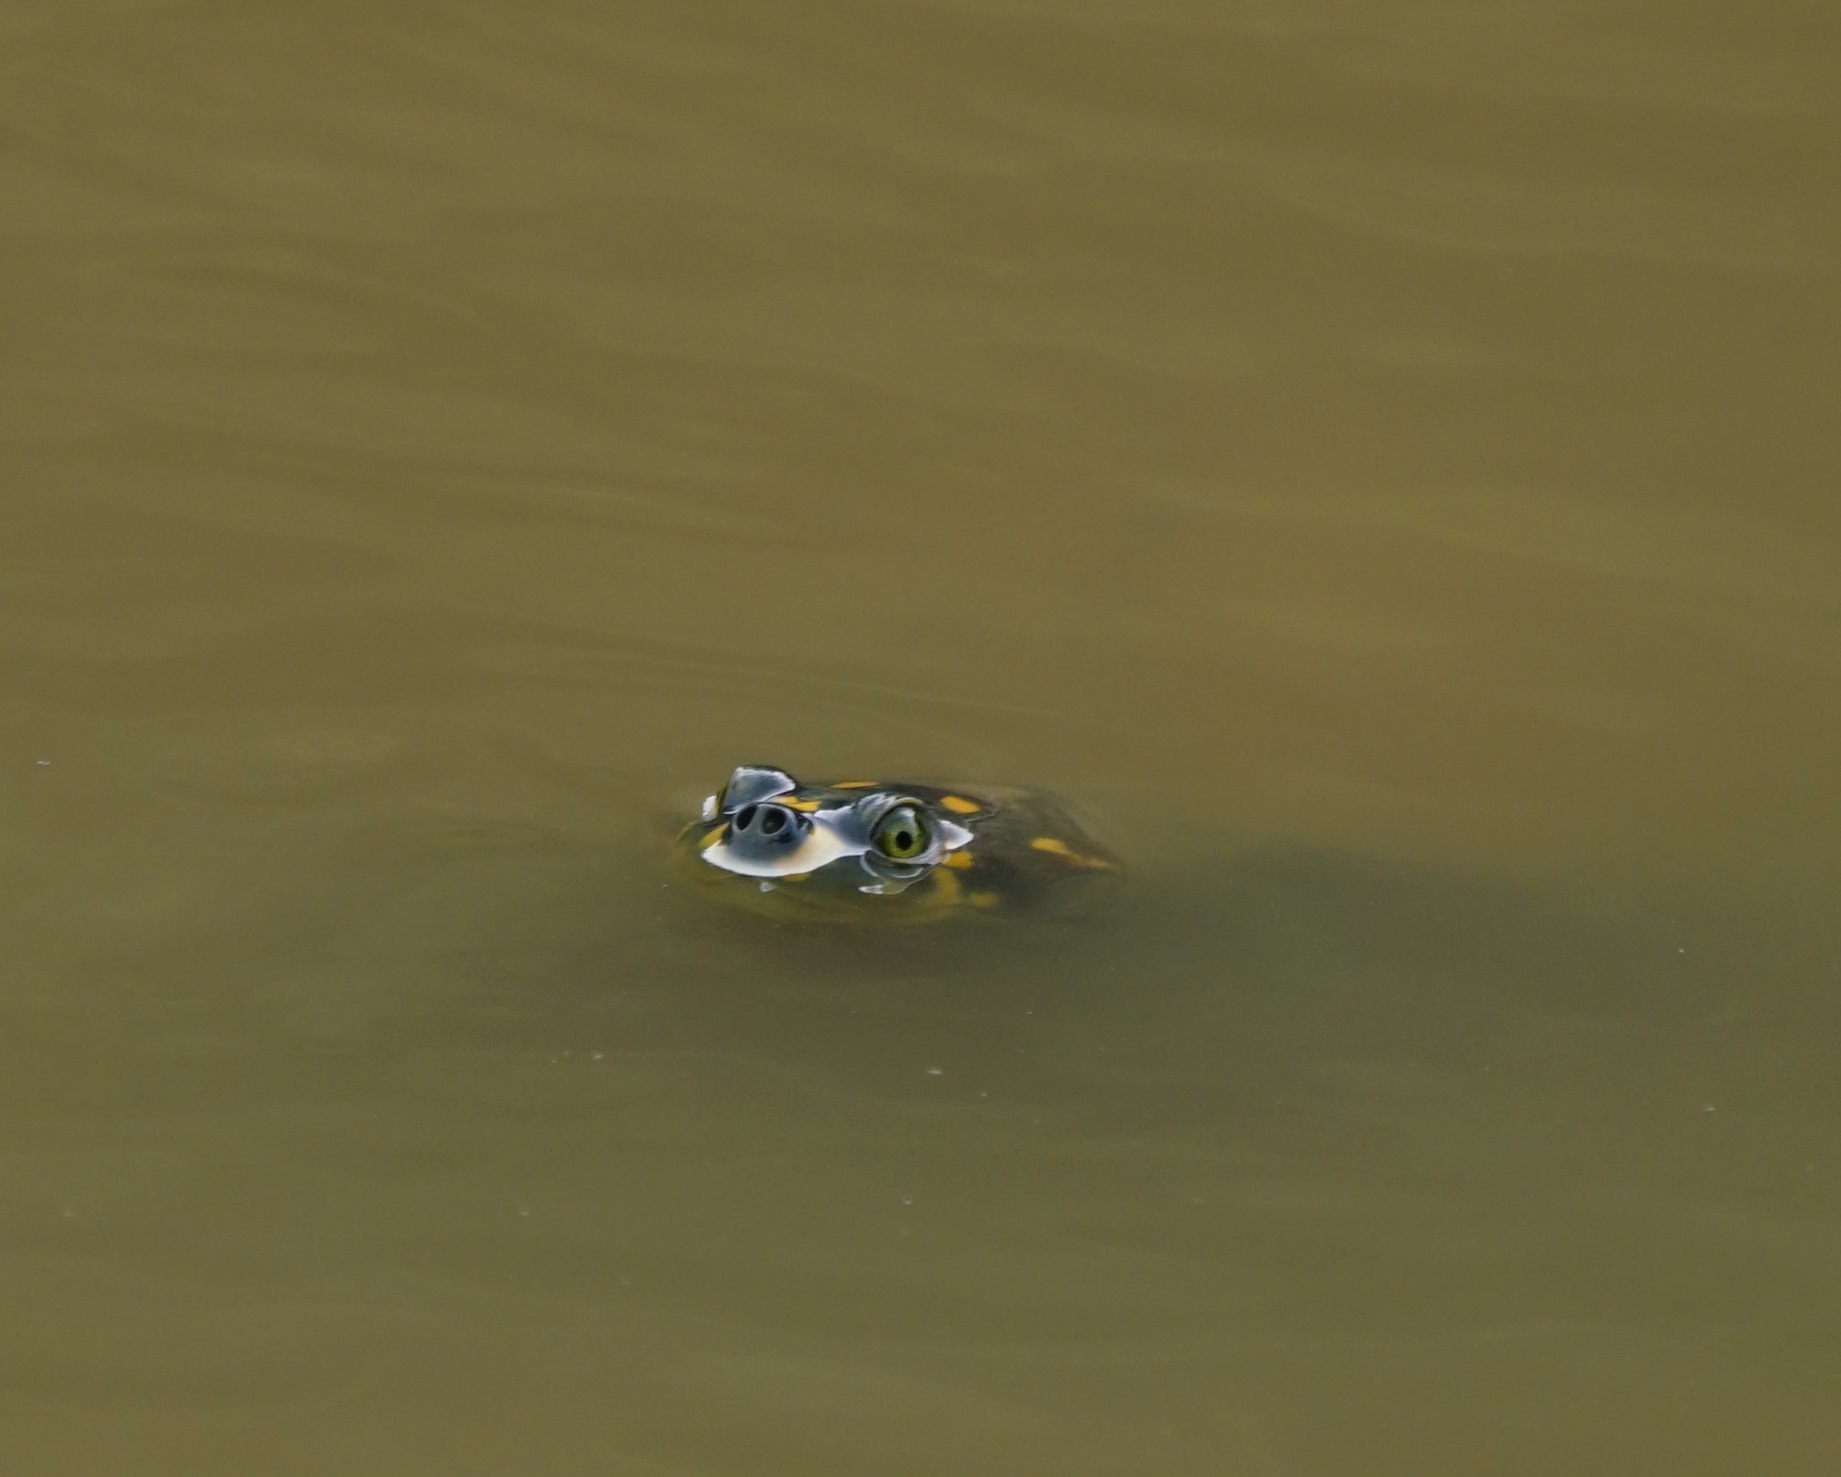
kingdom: Animalia
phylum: Chordata
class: Testudines
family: Podocnemididae
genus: Podocnemis
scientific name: Podocnemis unifilis
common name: Yellow-spotted amazon river turtle
